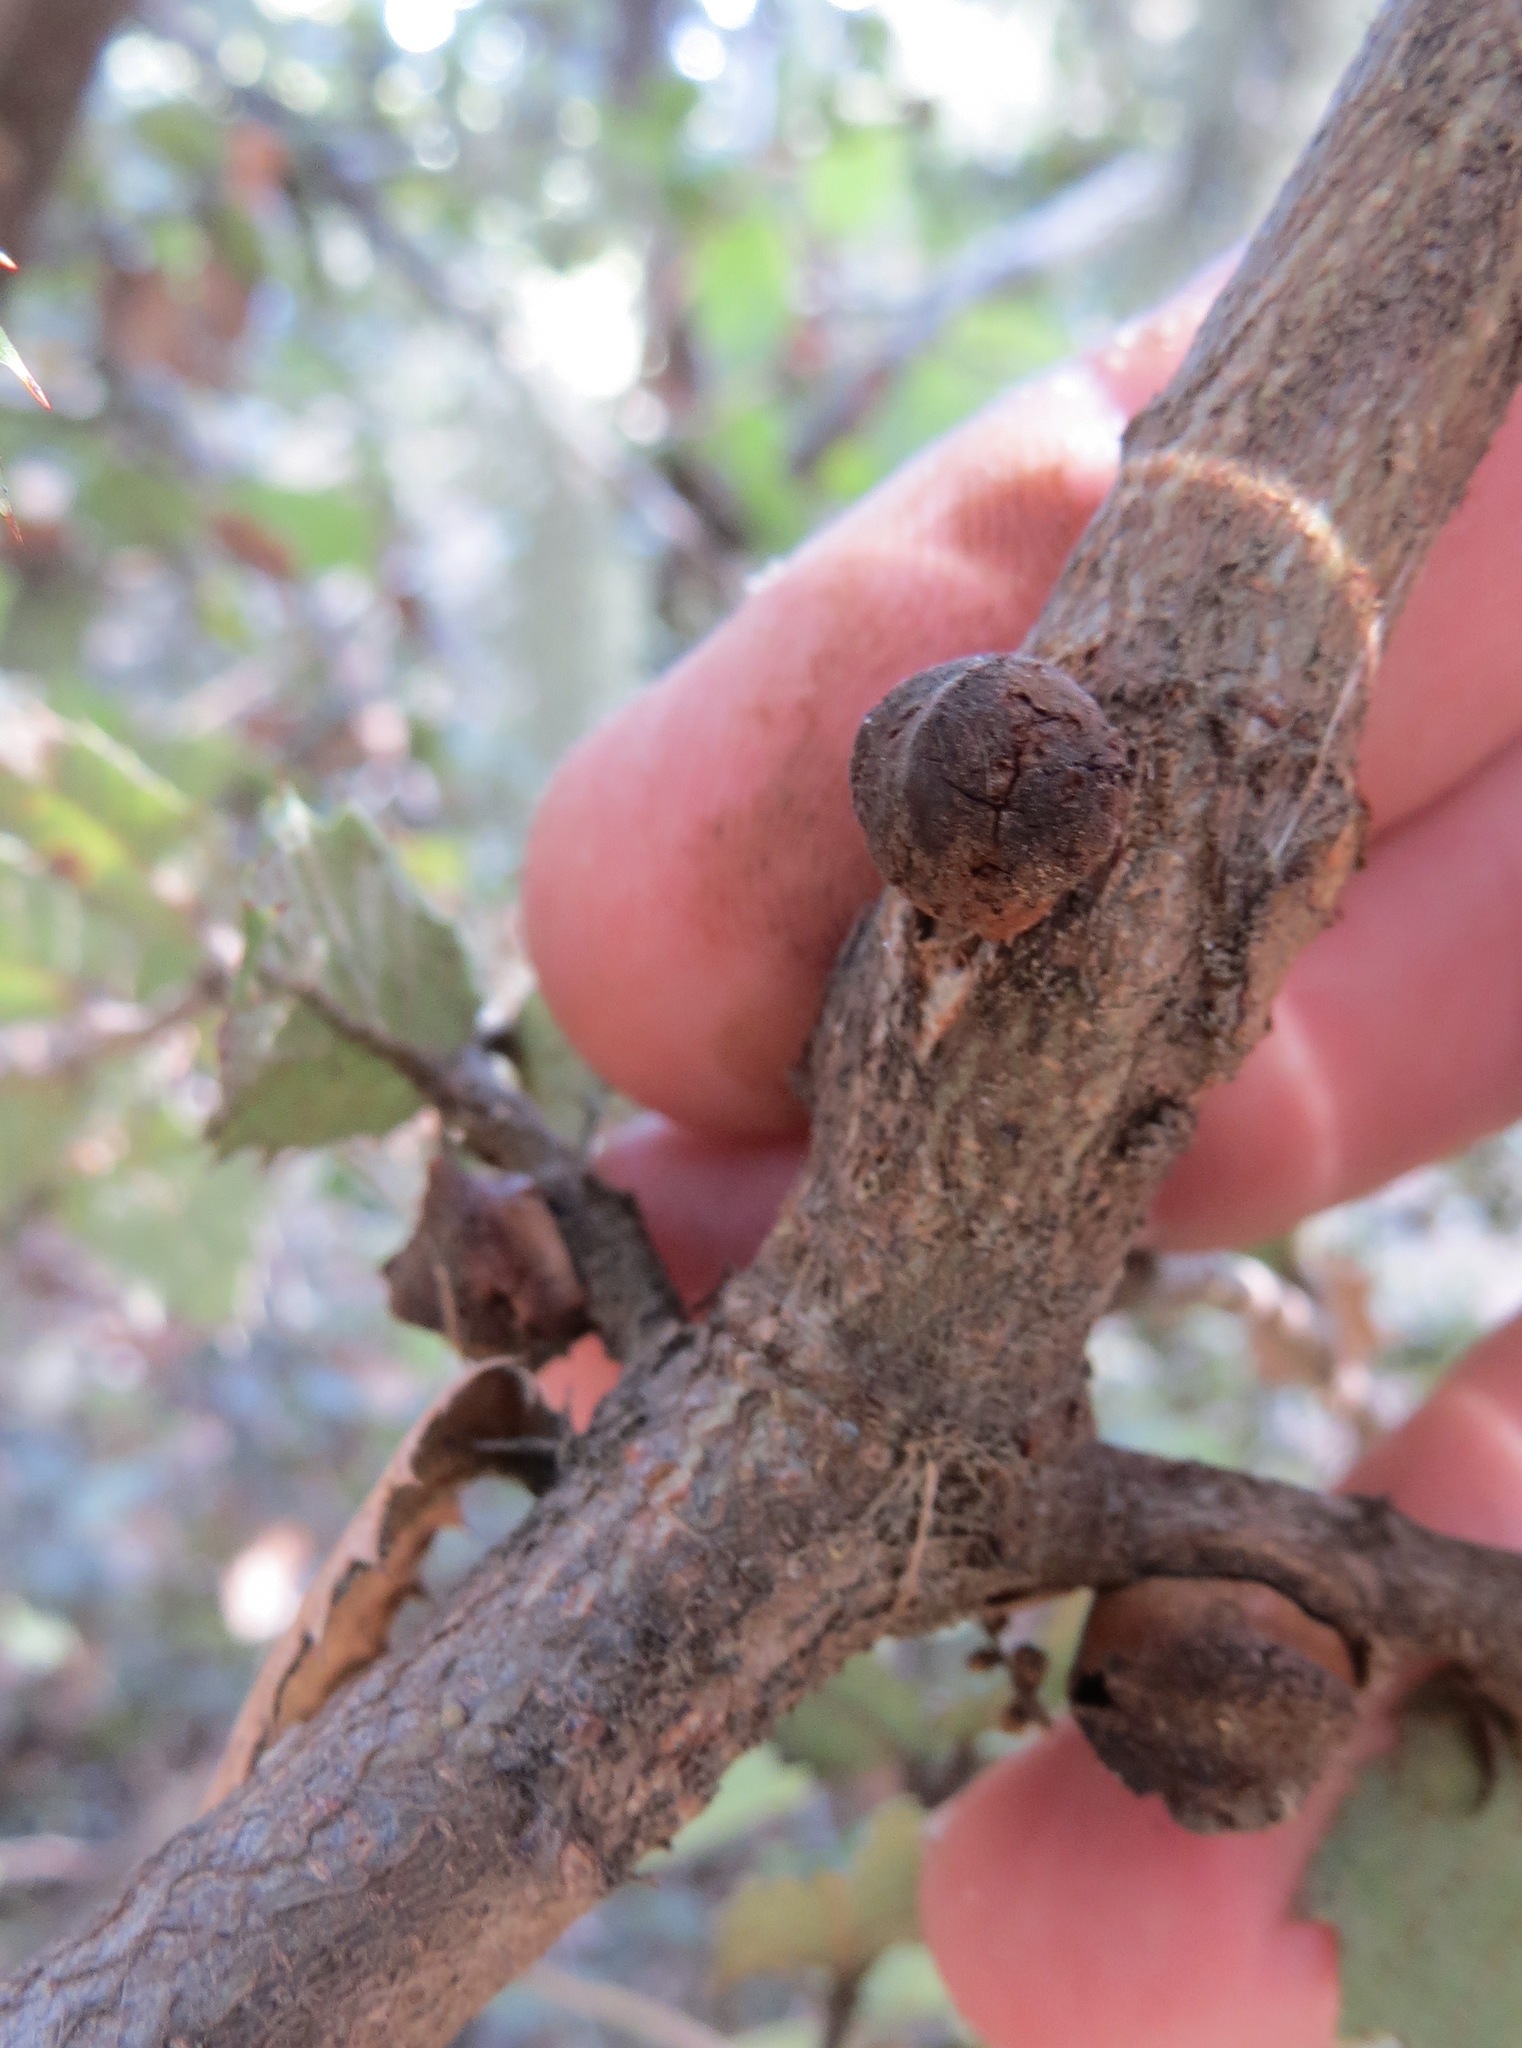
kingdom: Animalia
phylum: Arthropoda
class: Insecta
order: Hymenoptera
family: Cynipidae
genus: Disholandricus
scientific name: Disholandricus
